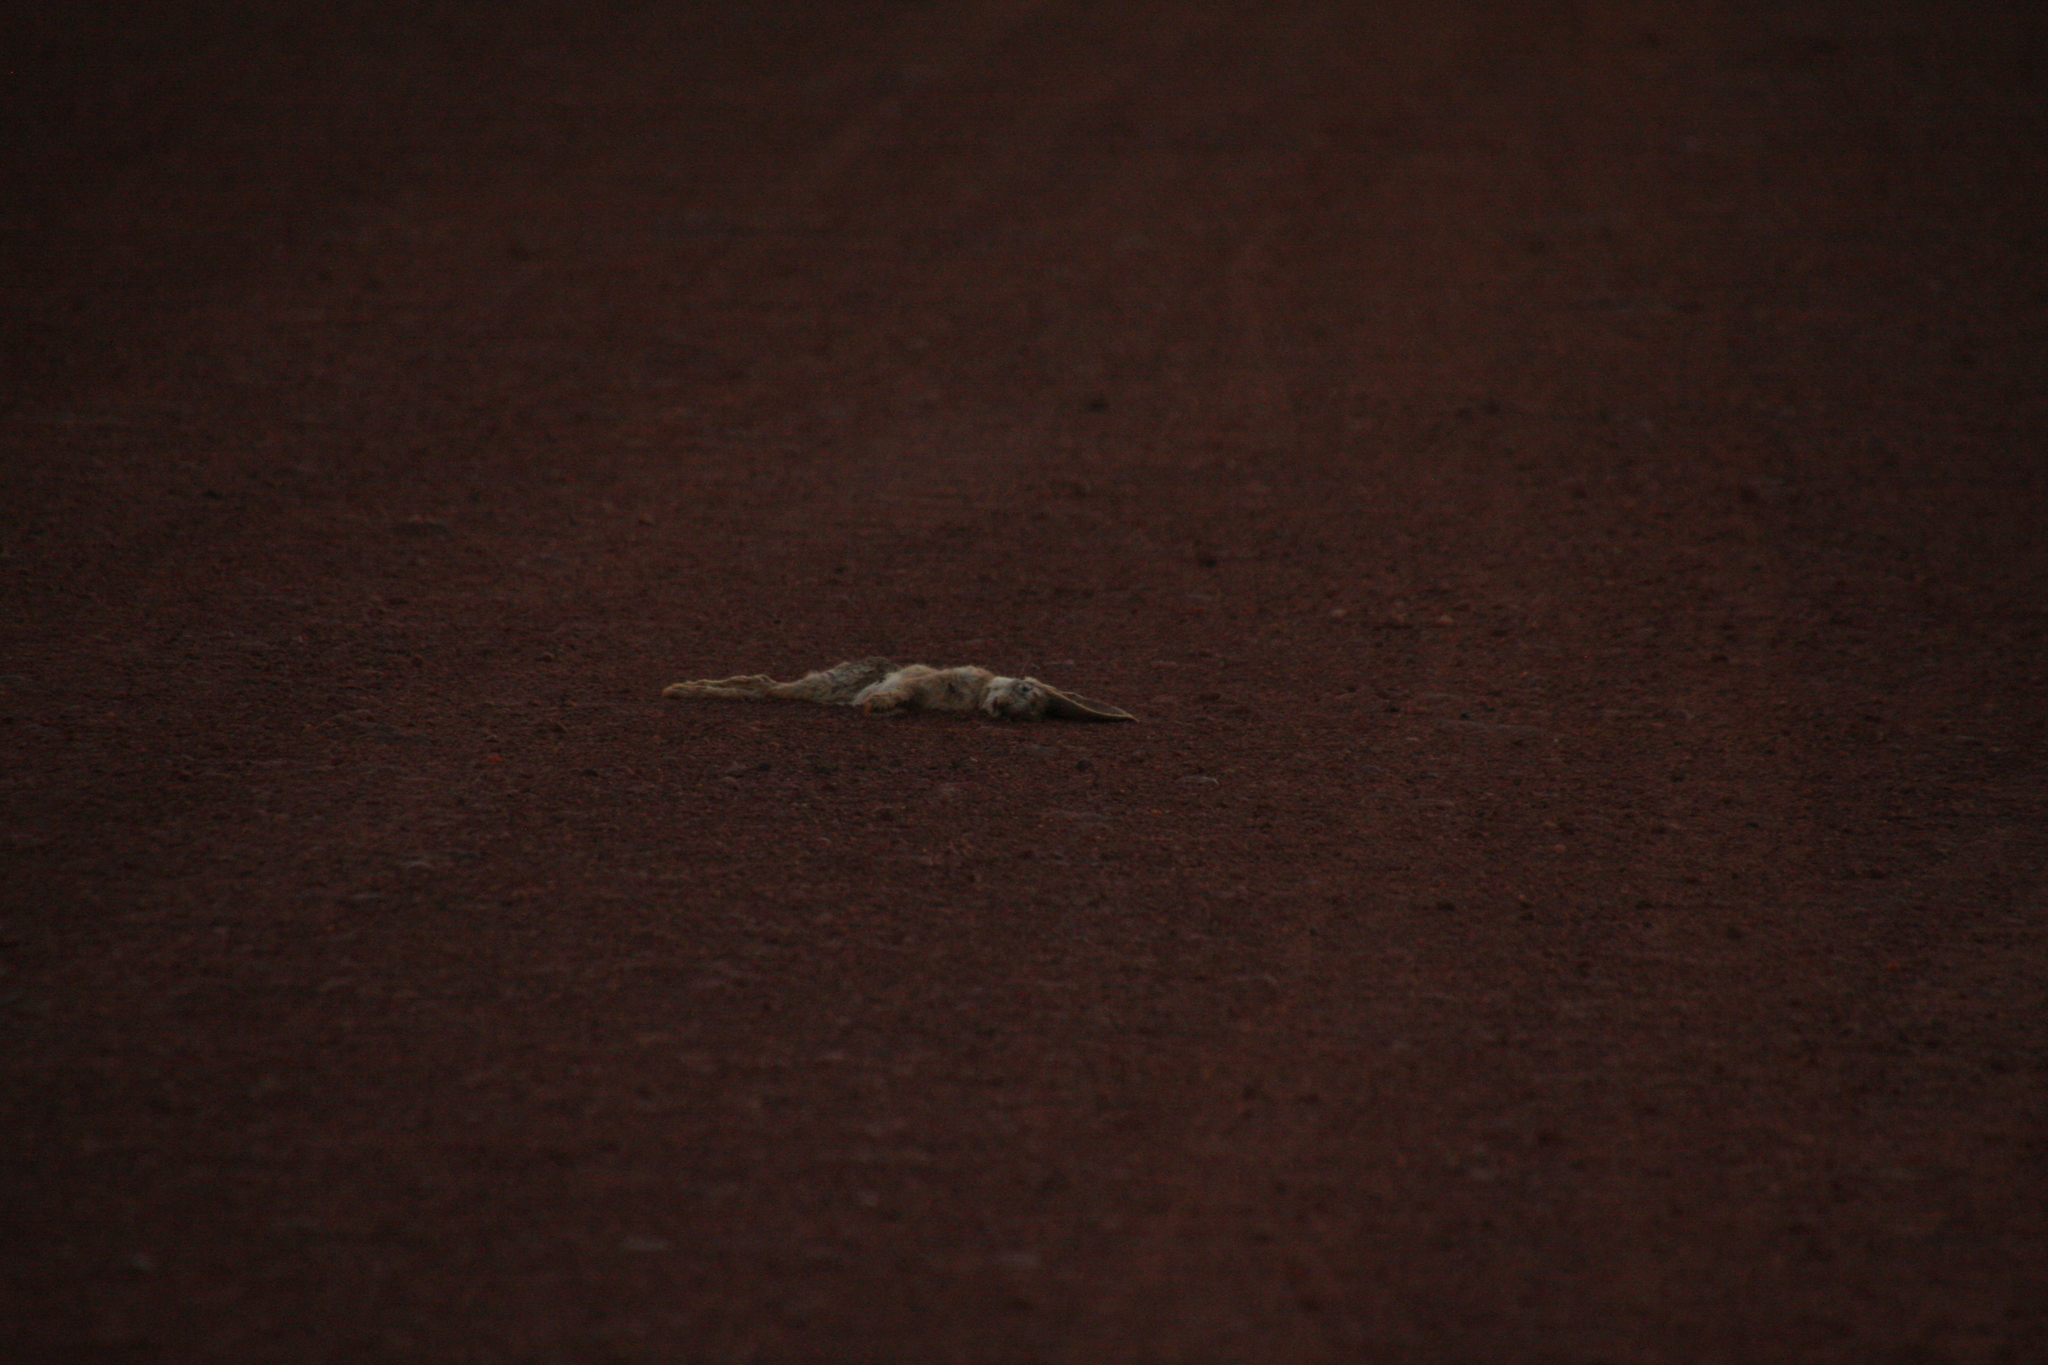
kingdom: Animalia
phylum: Chordata
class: Mammalia
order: Lagomorpha
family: Leporidae
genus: Lepus
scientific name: Lepus victoriae
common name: African savanna hare
